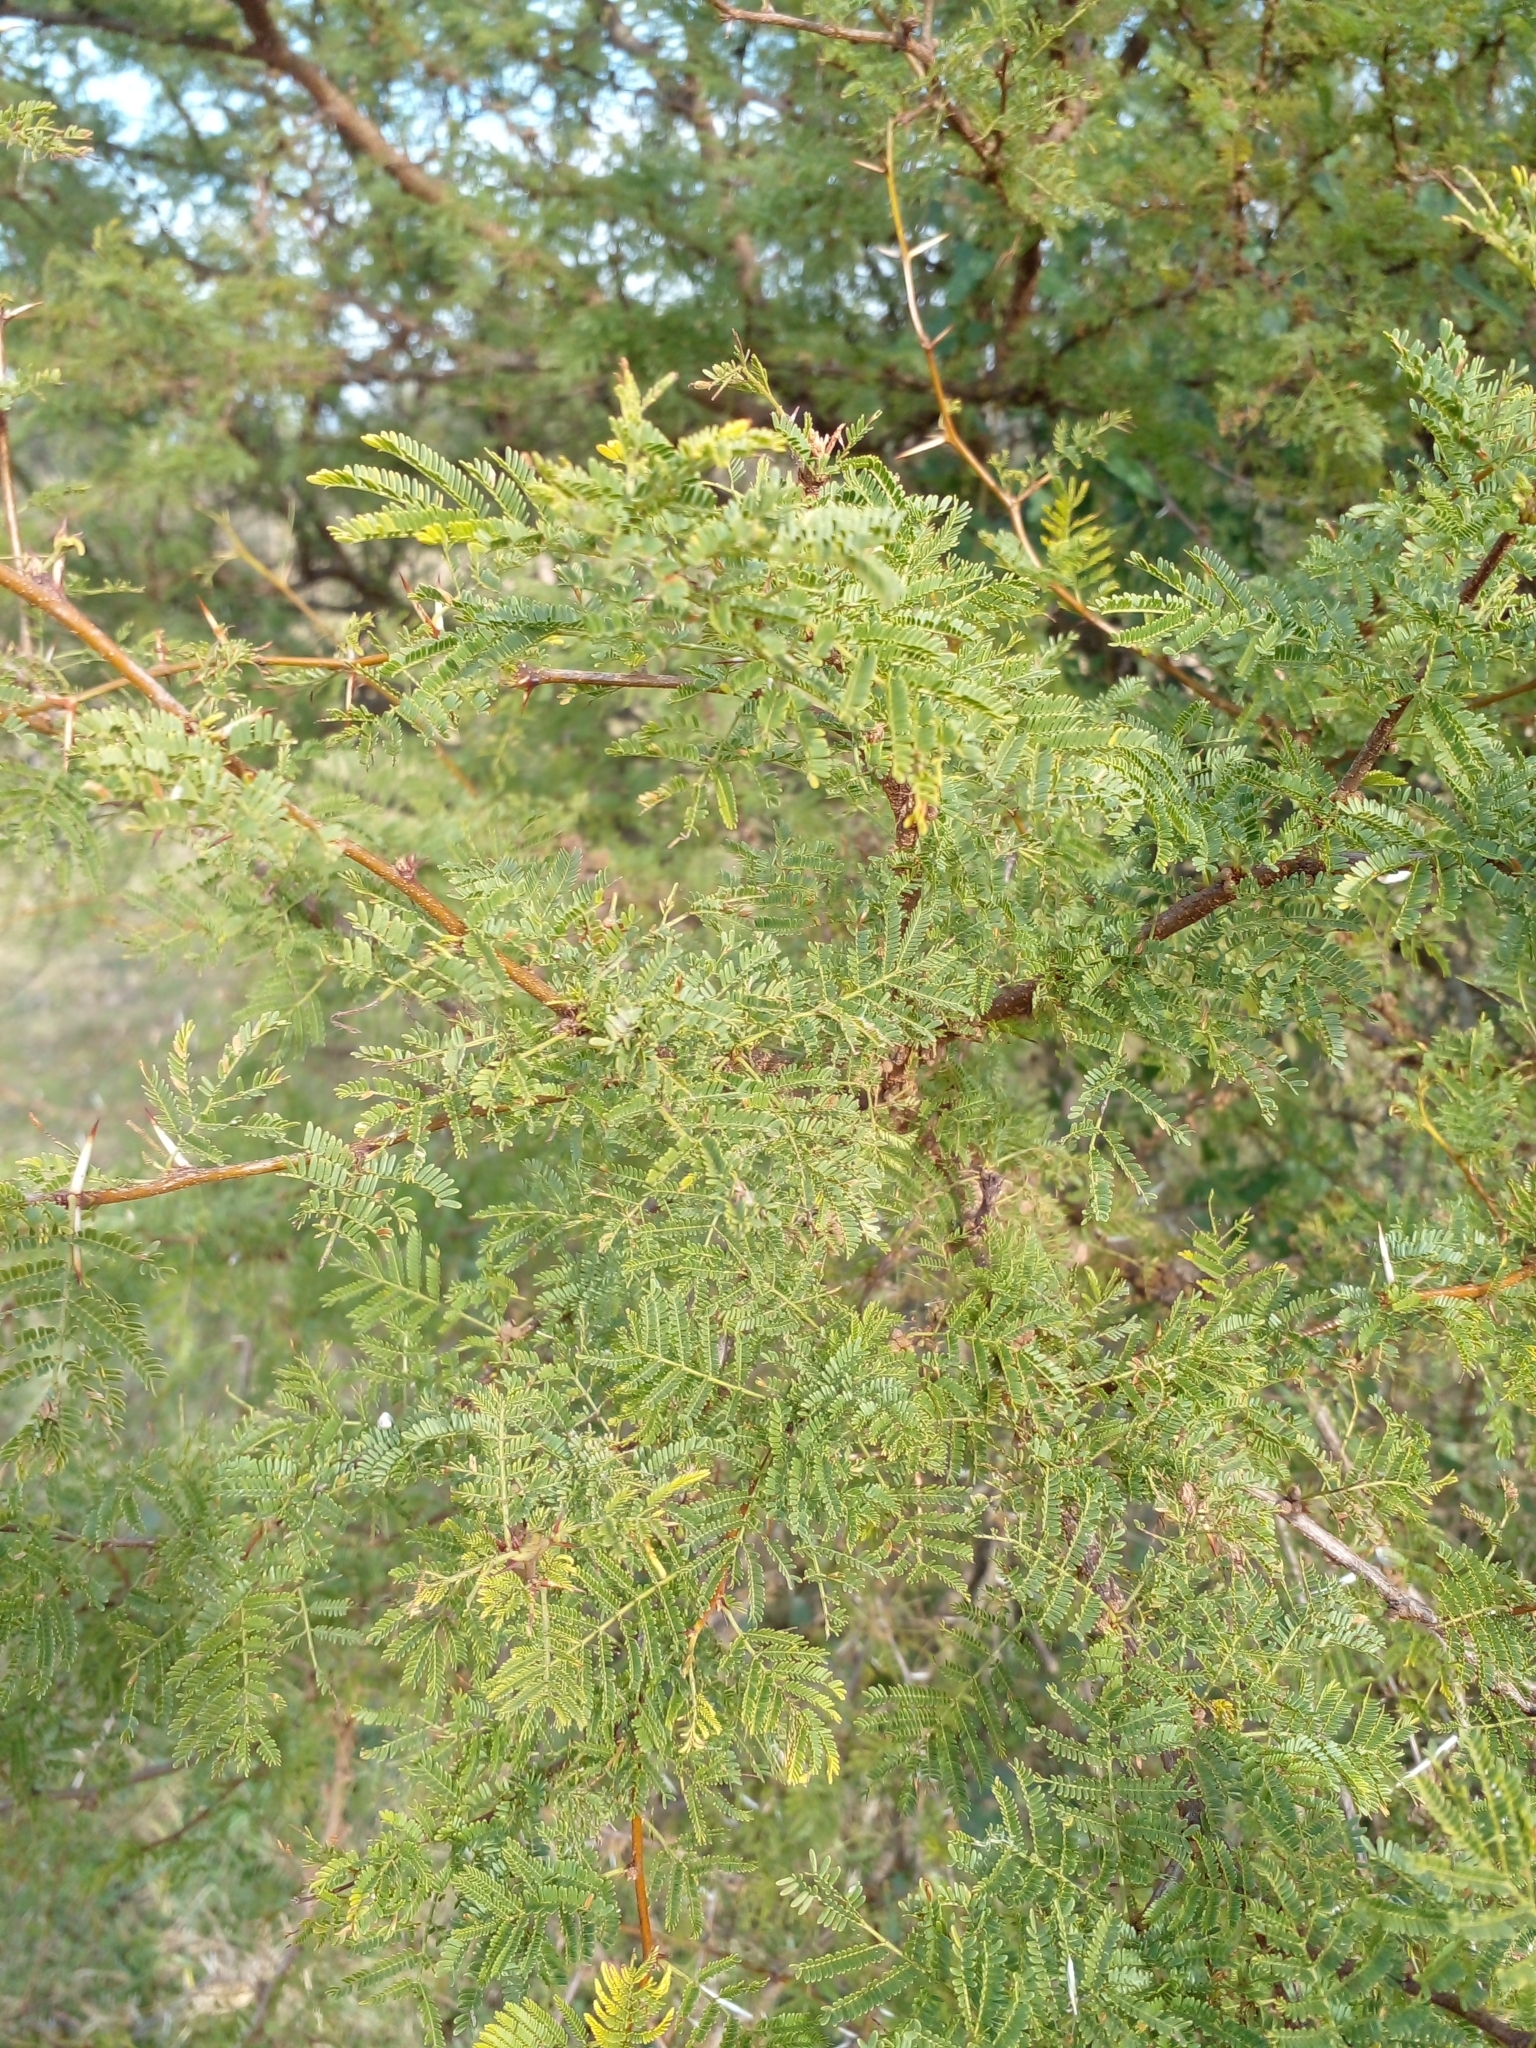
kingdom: Plantae
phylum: Tracheophyta
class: Magnoliopsida
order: Fabales
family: Fabaceae
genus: Vachellia
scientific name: Vachellia caven
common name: Roman cassie
